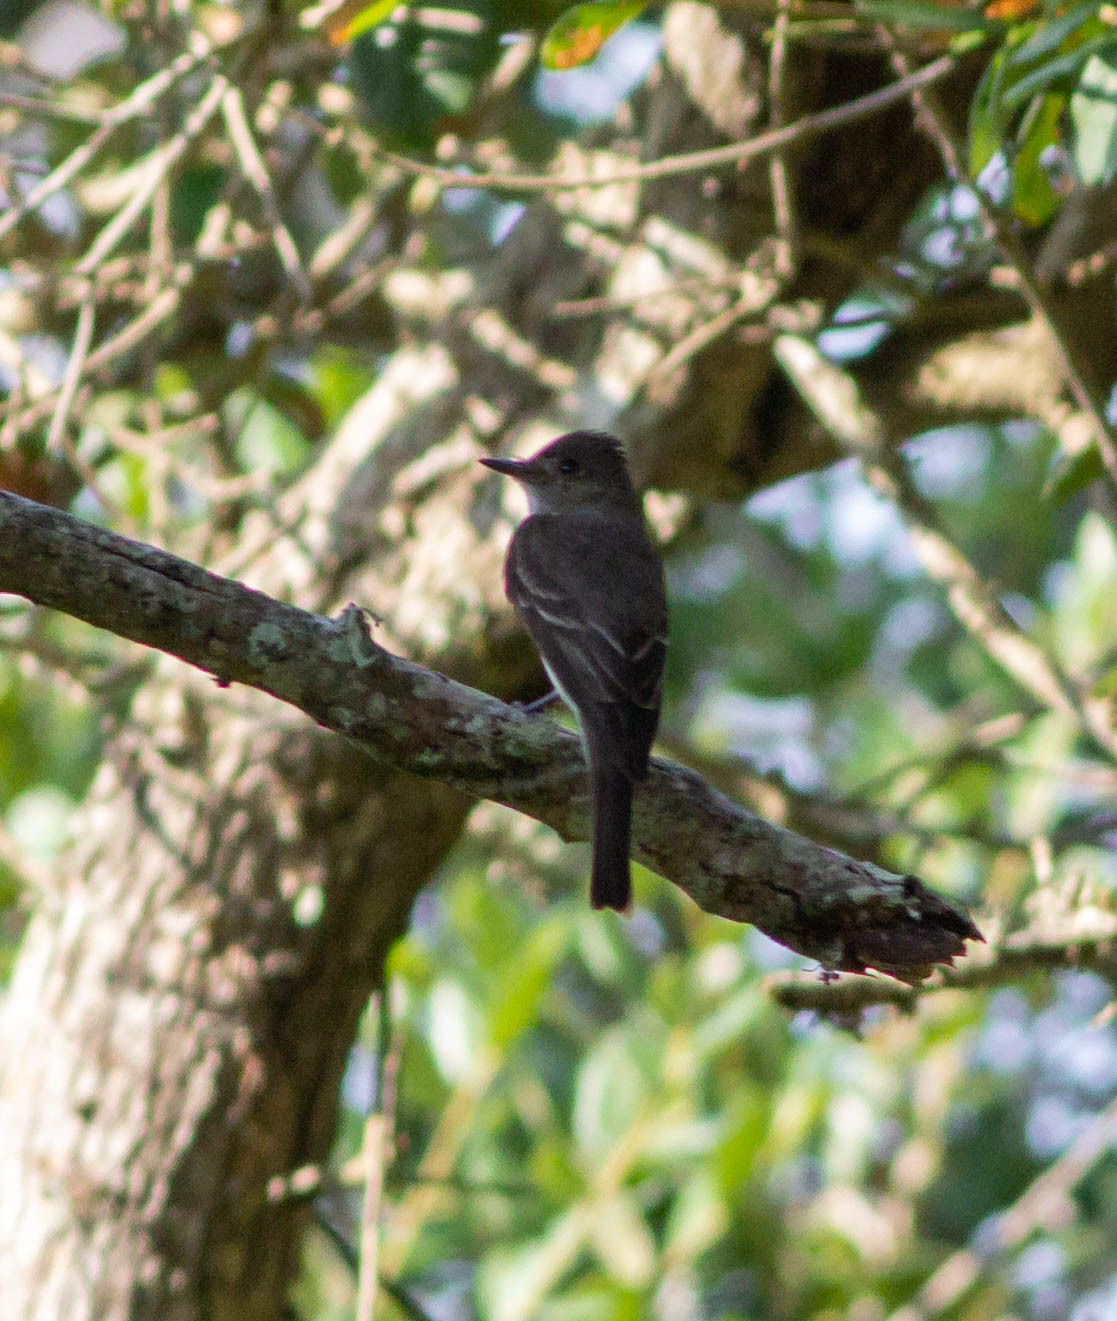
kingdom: Animalia
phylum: Chordata
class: Aves
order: Passeriformes
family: Tyrannidae
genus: Contopus
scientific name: Contopus virens
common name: Eastern wood-pewee
